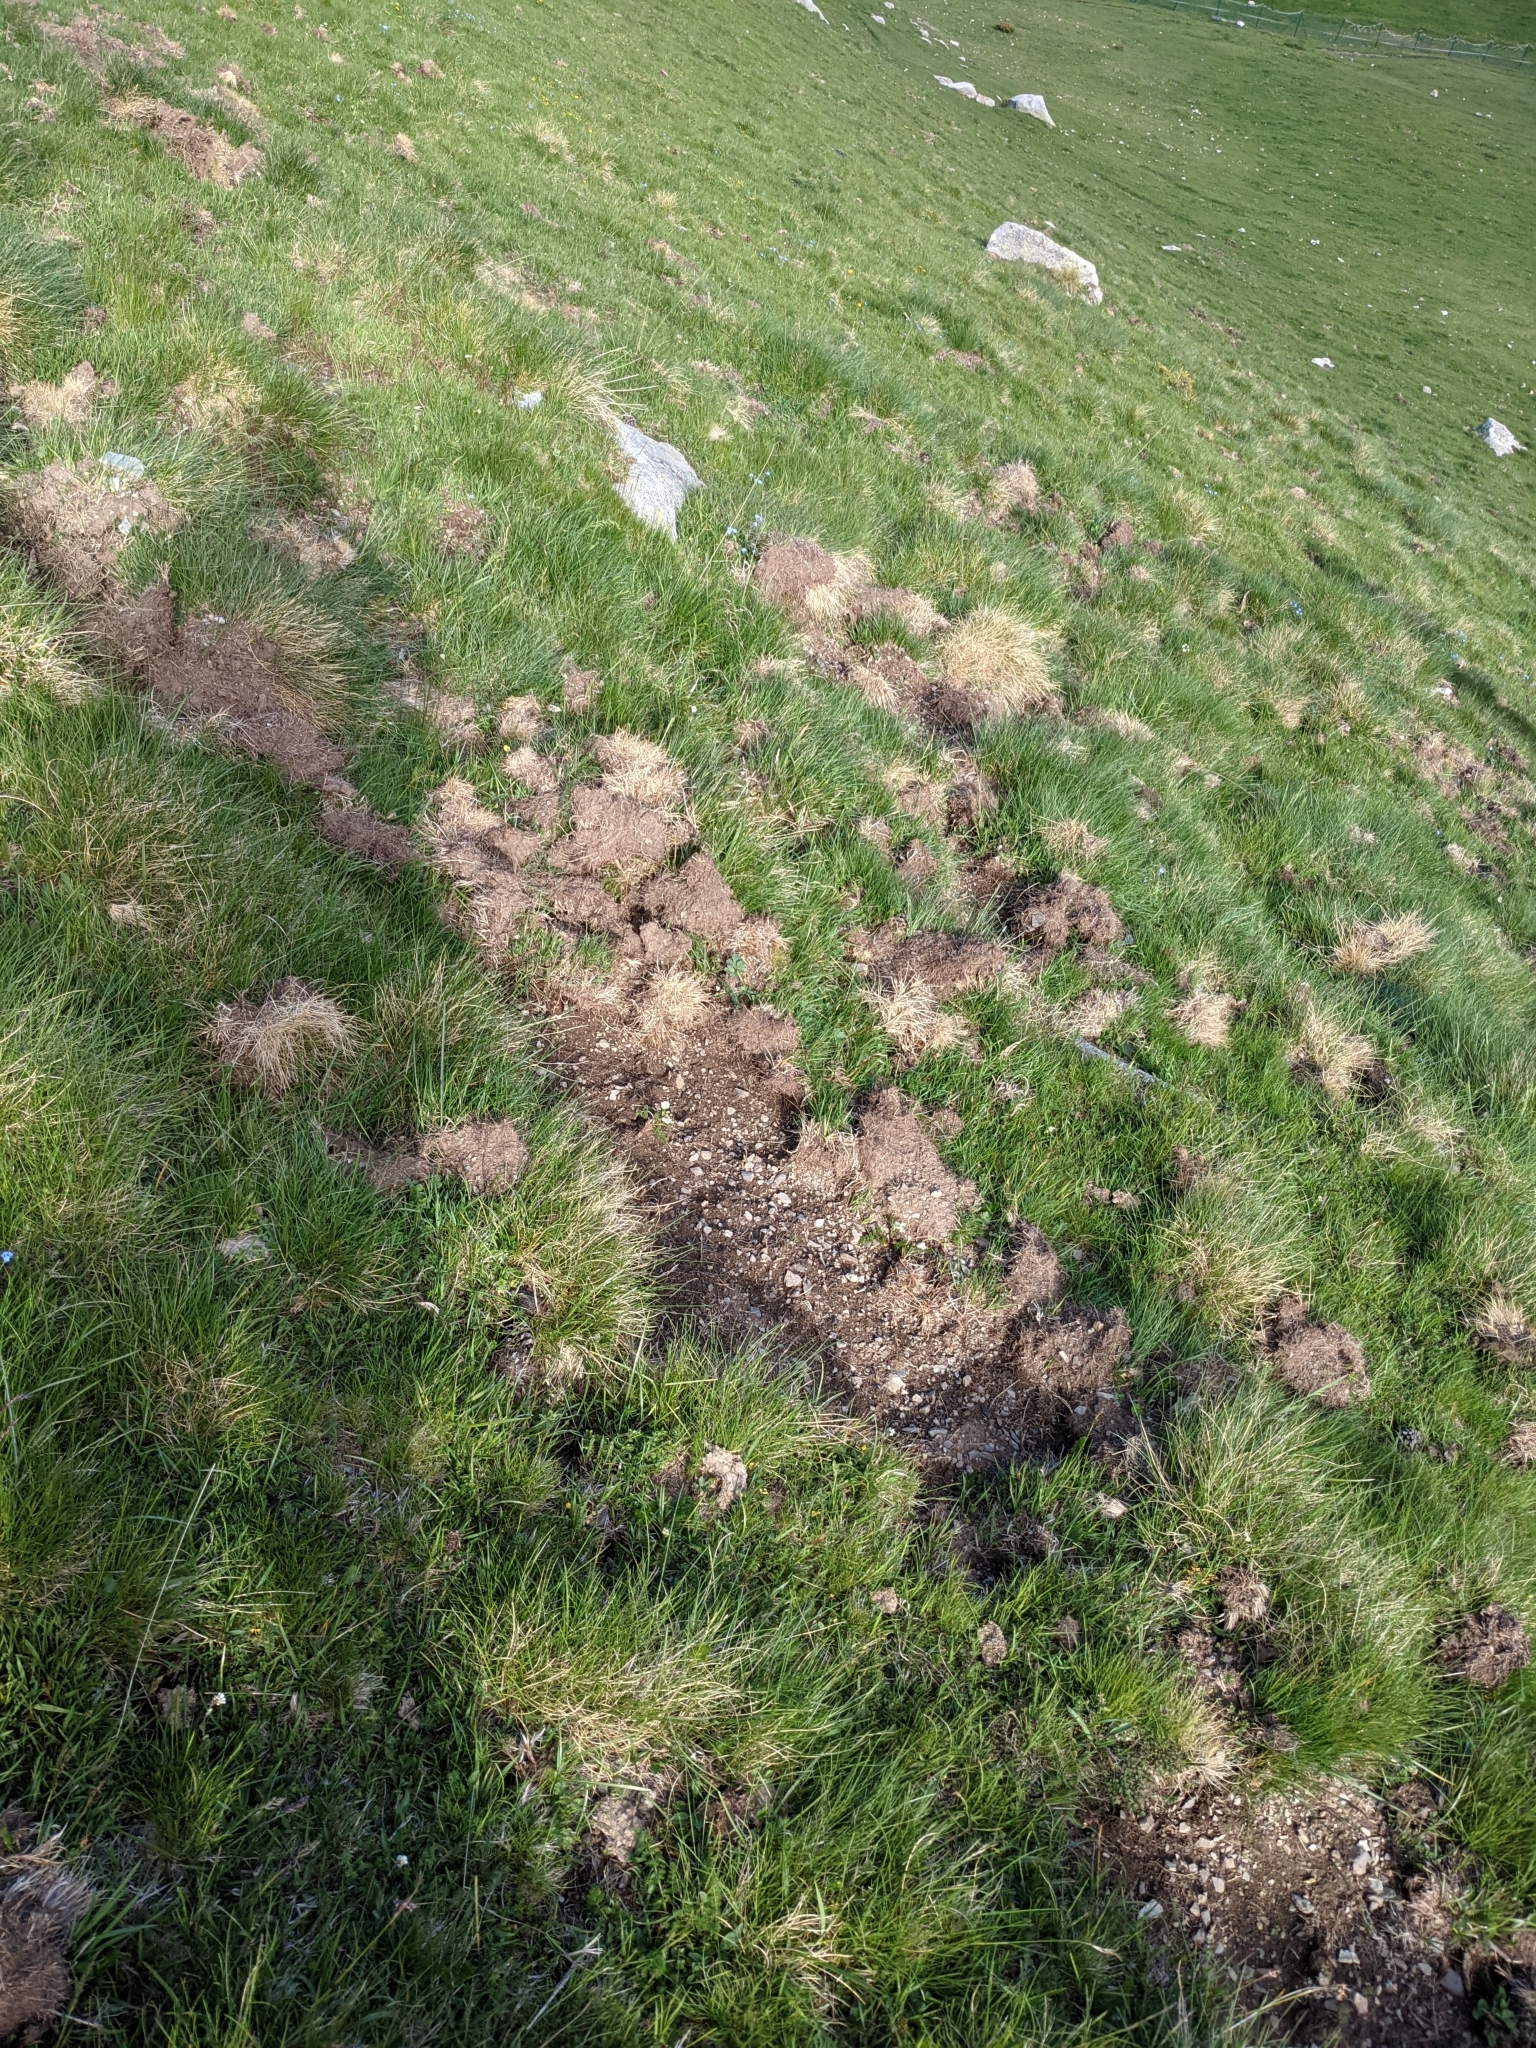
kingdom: Animalia
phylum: Chordata
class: Mammalia
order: Artiodactyla
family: Suidae
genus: Sus
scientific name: Sus scrofa
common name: Wild boar
